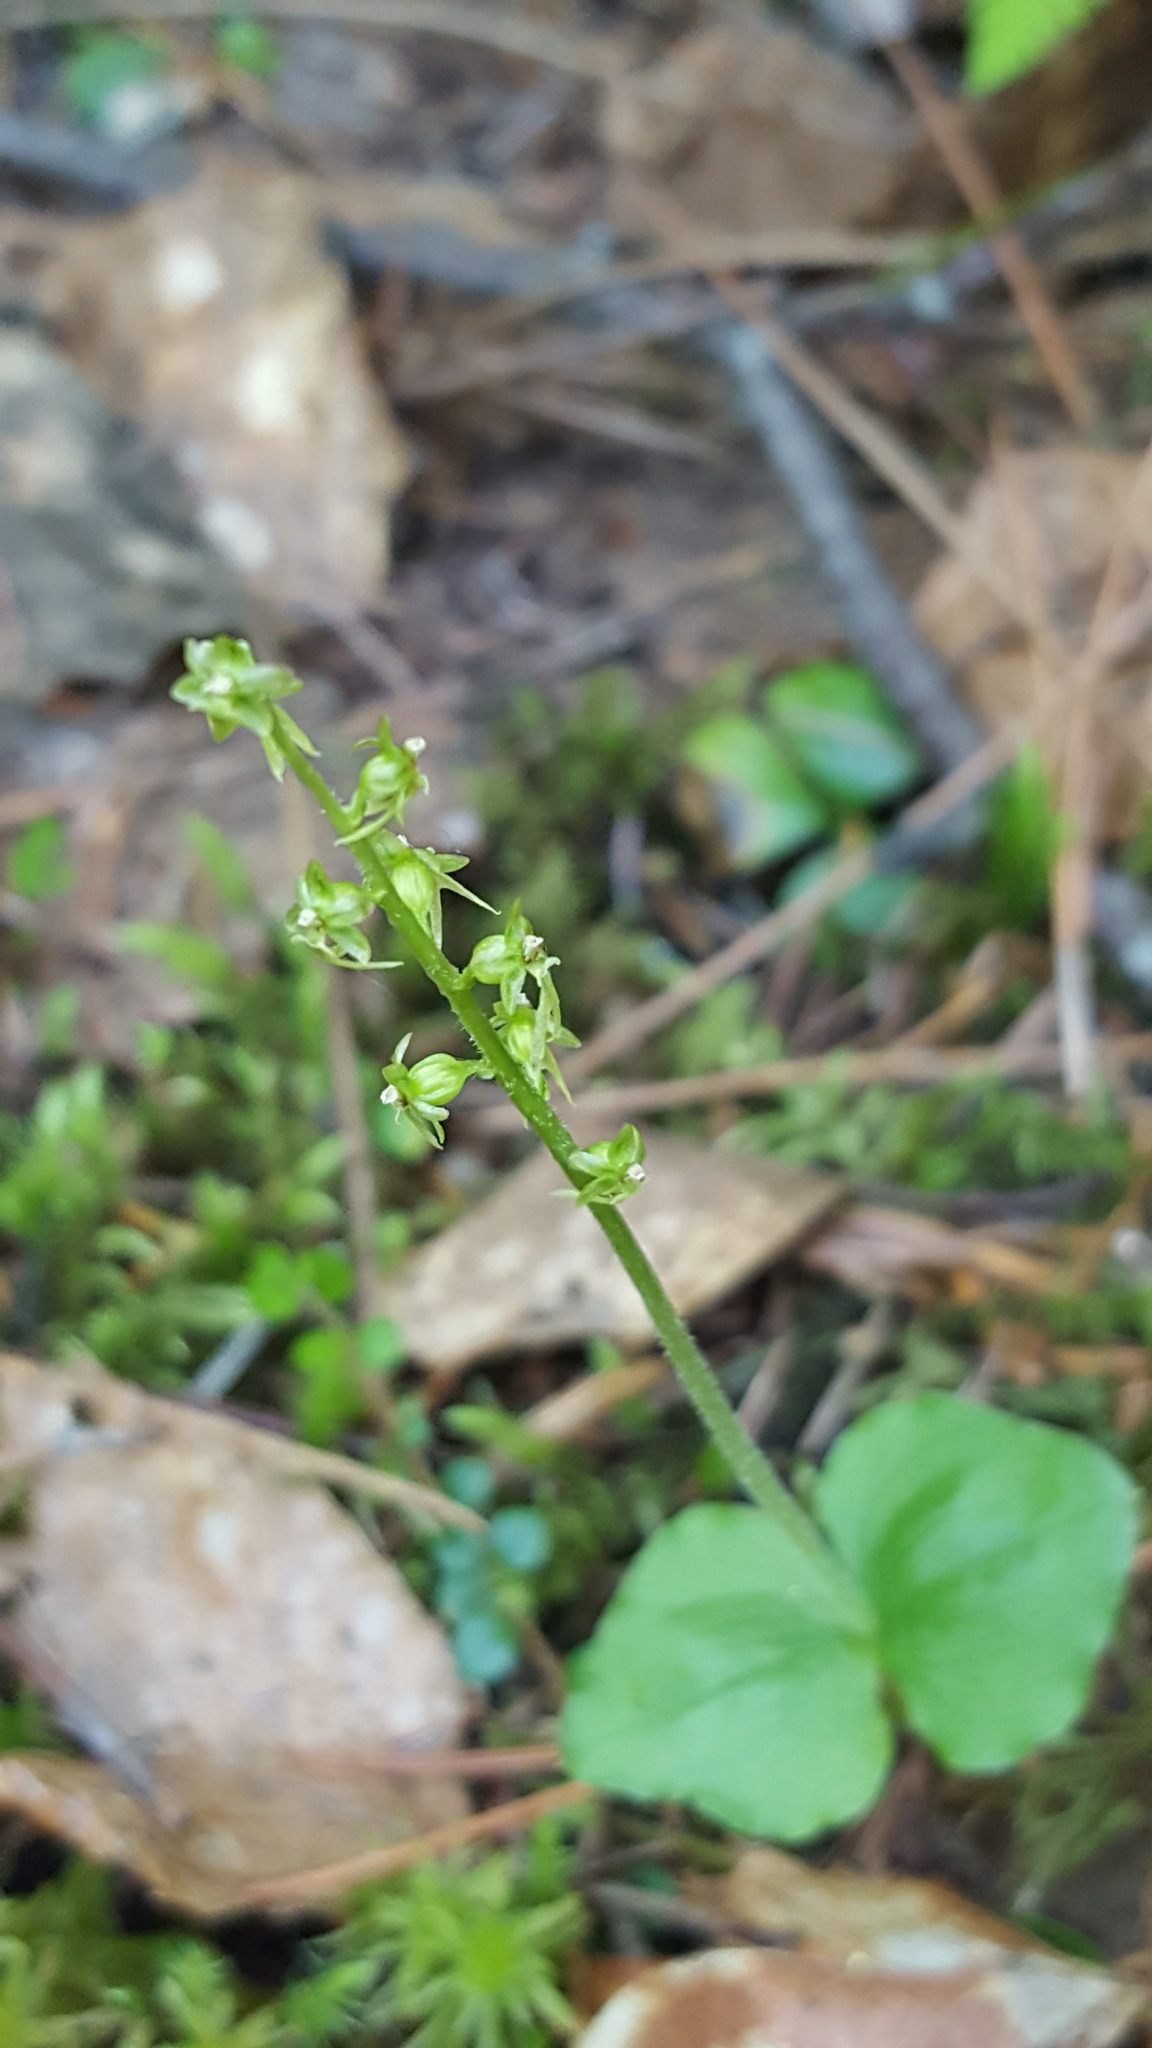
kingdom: Plantae
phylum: Tracheophyta
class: Liliopsida
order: Asparagales
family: Orchidaceae
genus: Neottia
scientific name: Neottia cordata
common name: Lesser twayblade
